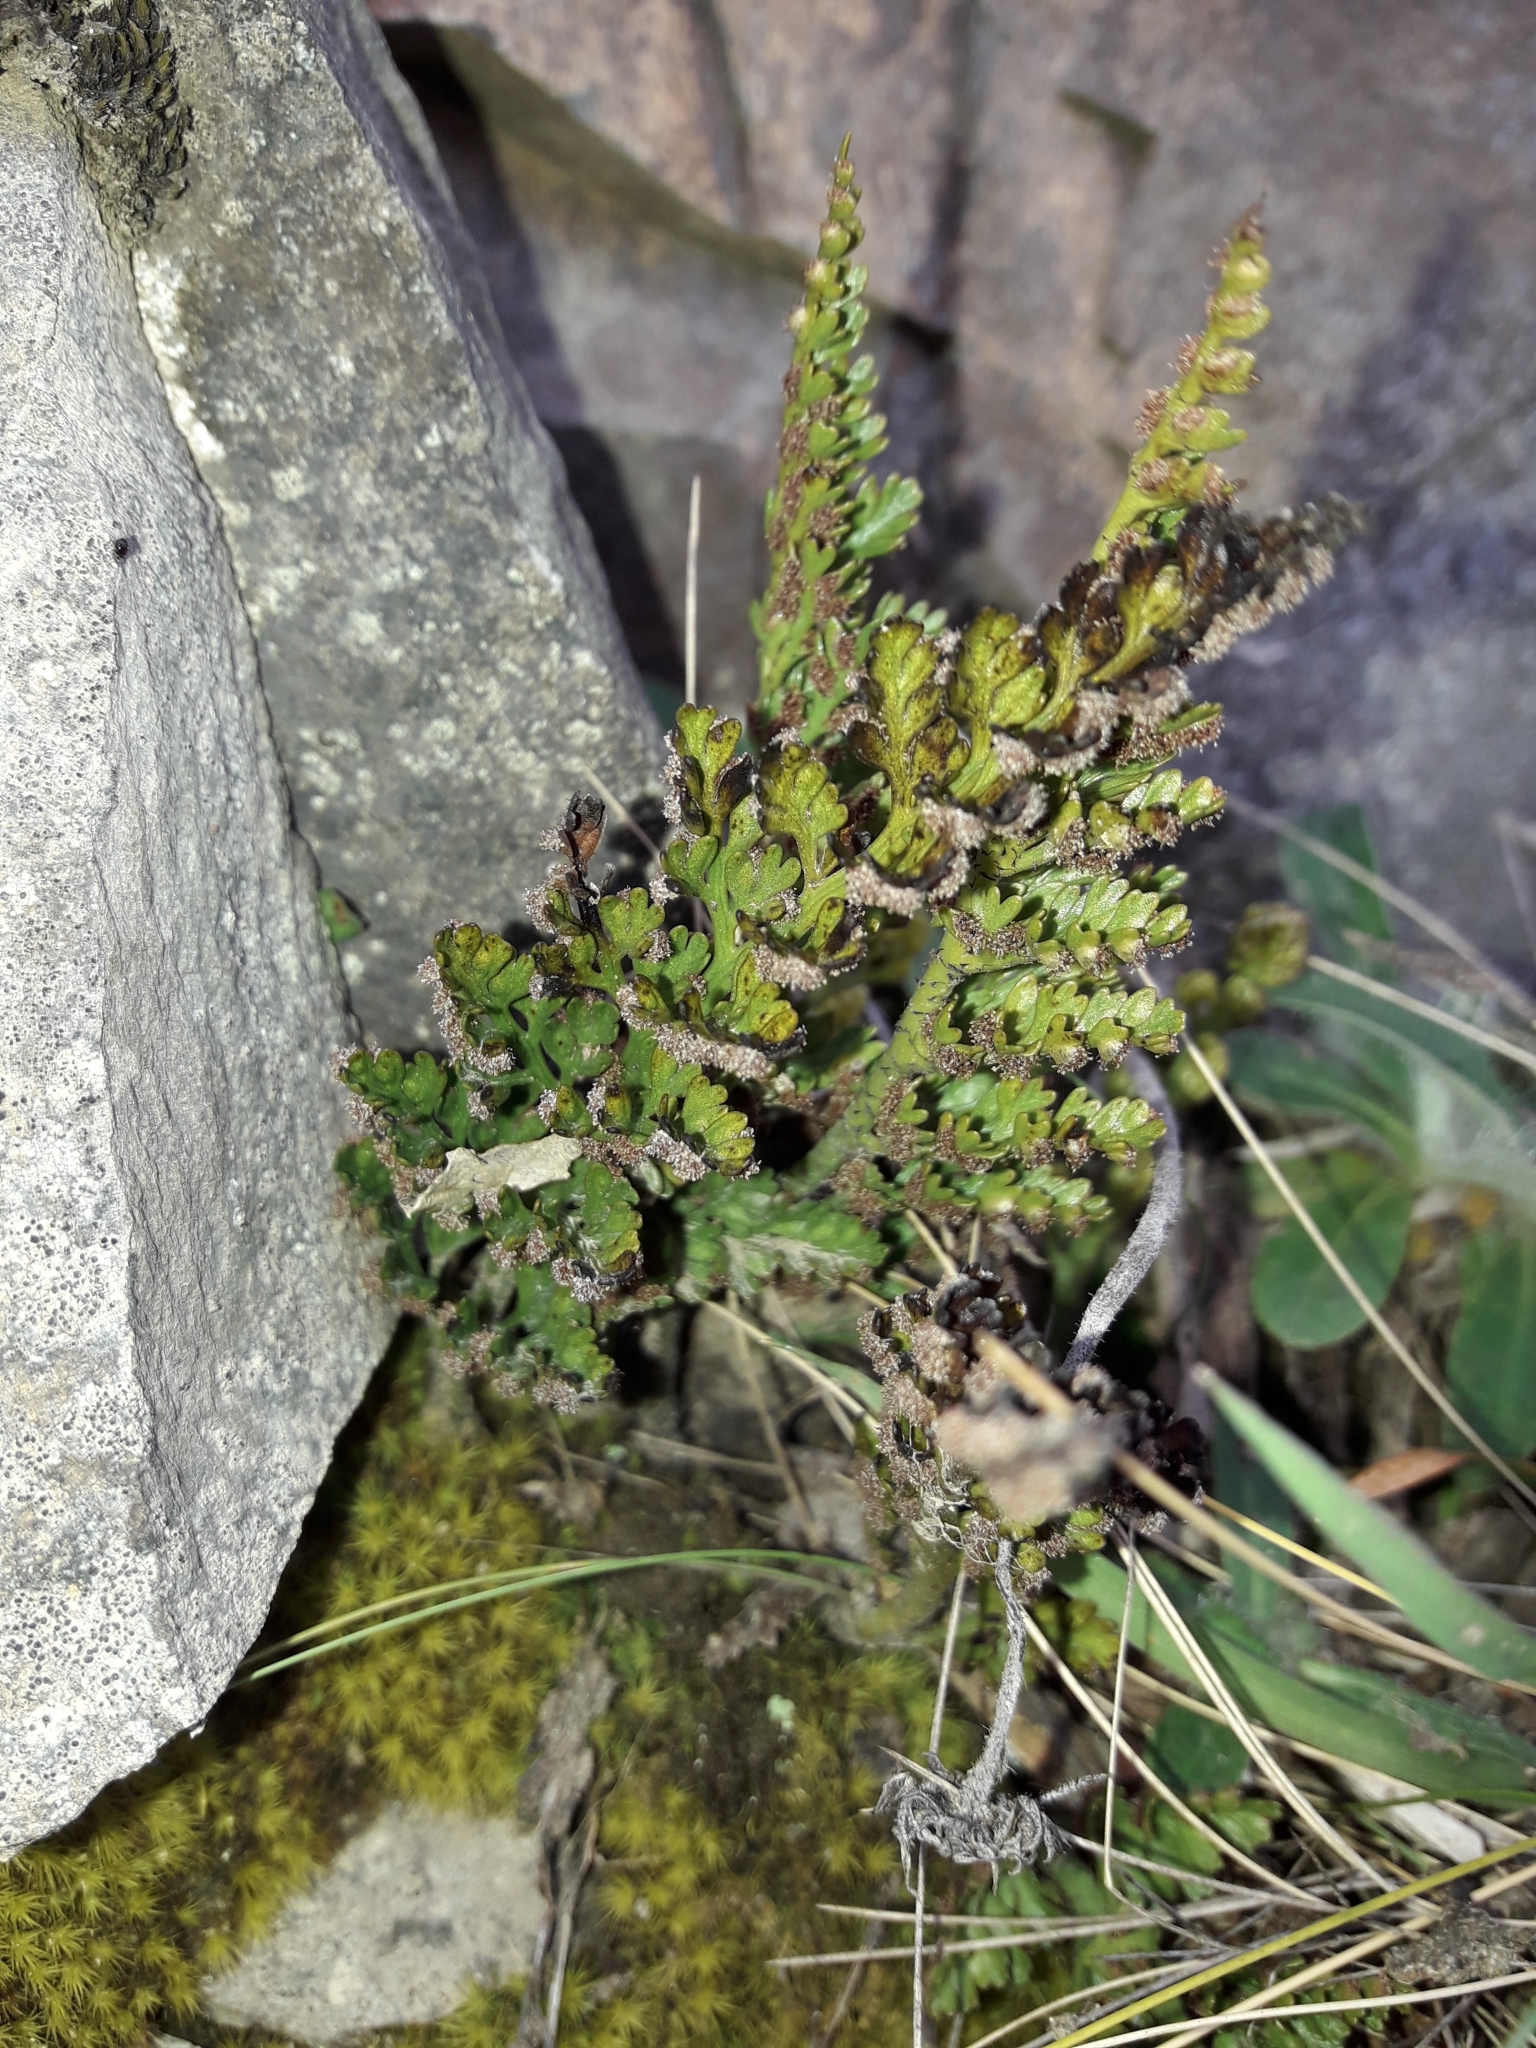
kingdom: Plantae
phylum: Tracheophyta
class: Polypodiopsida
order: Polypodiales
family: Aspleniaceae
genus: Asplenium
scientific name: Asplenium richardii
